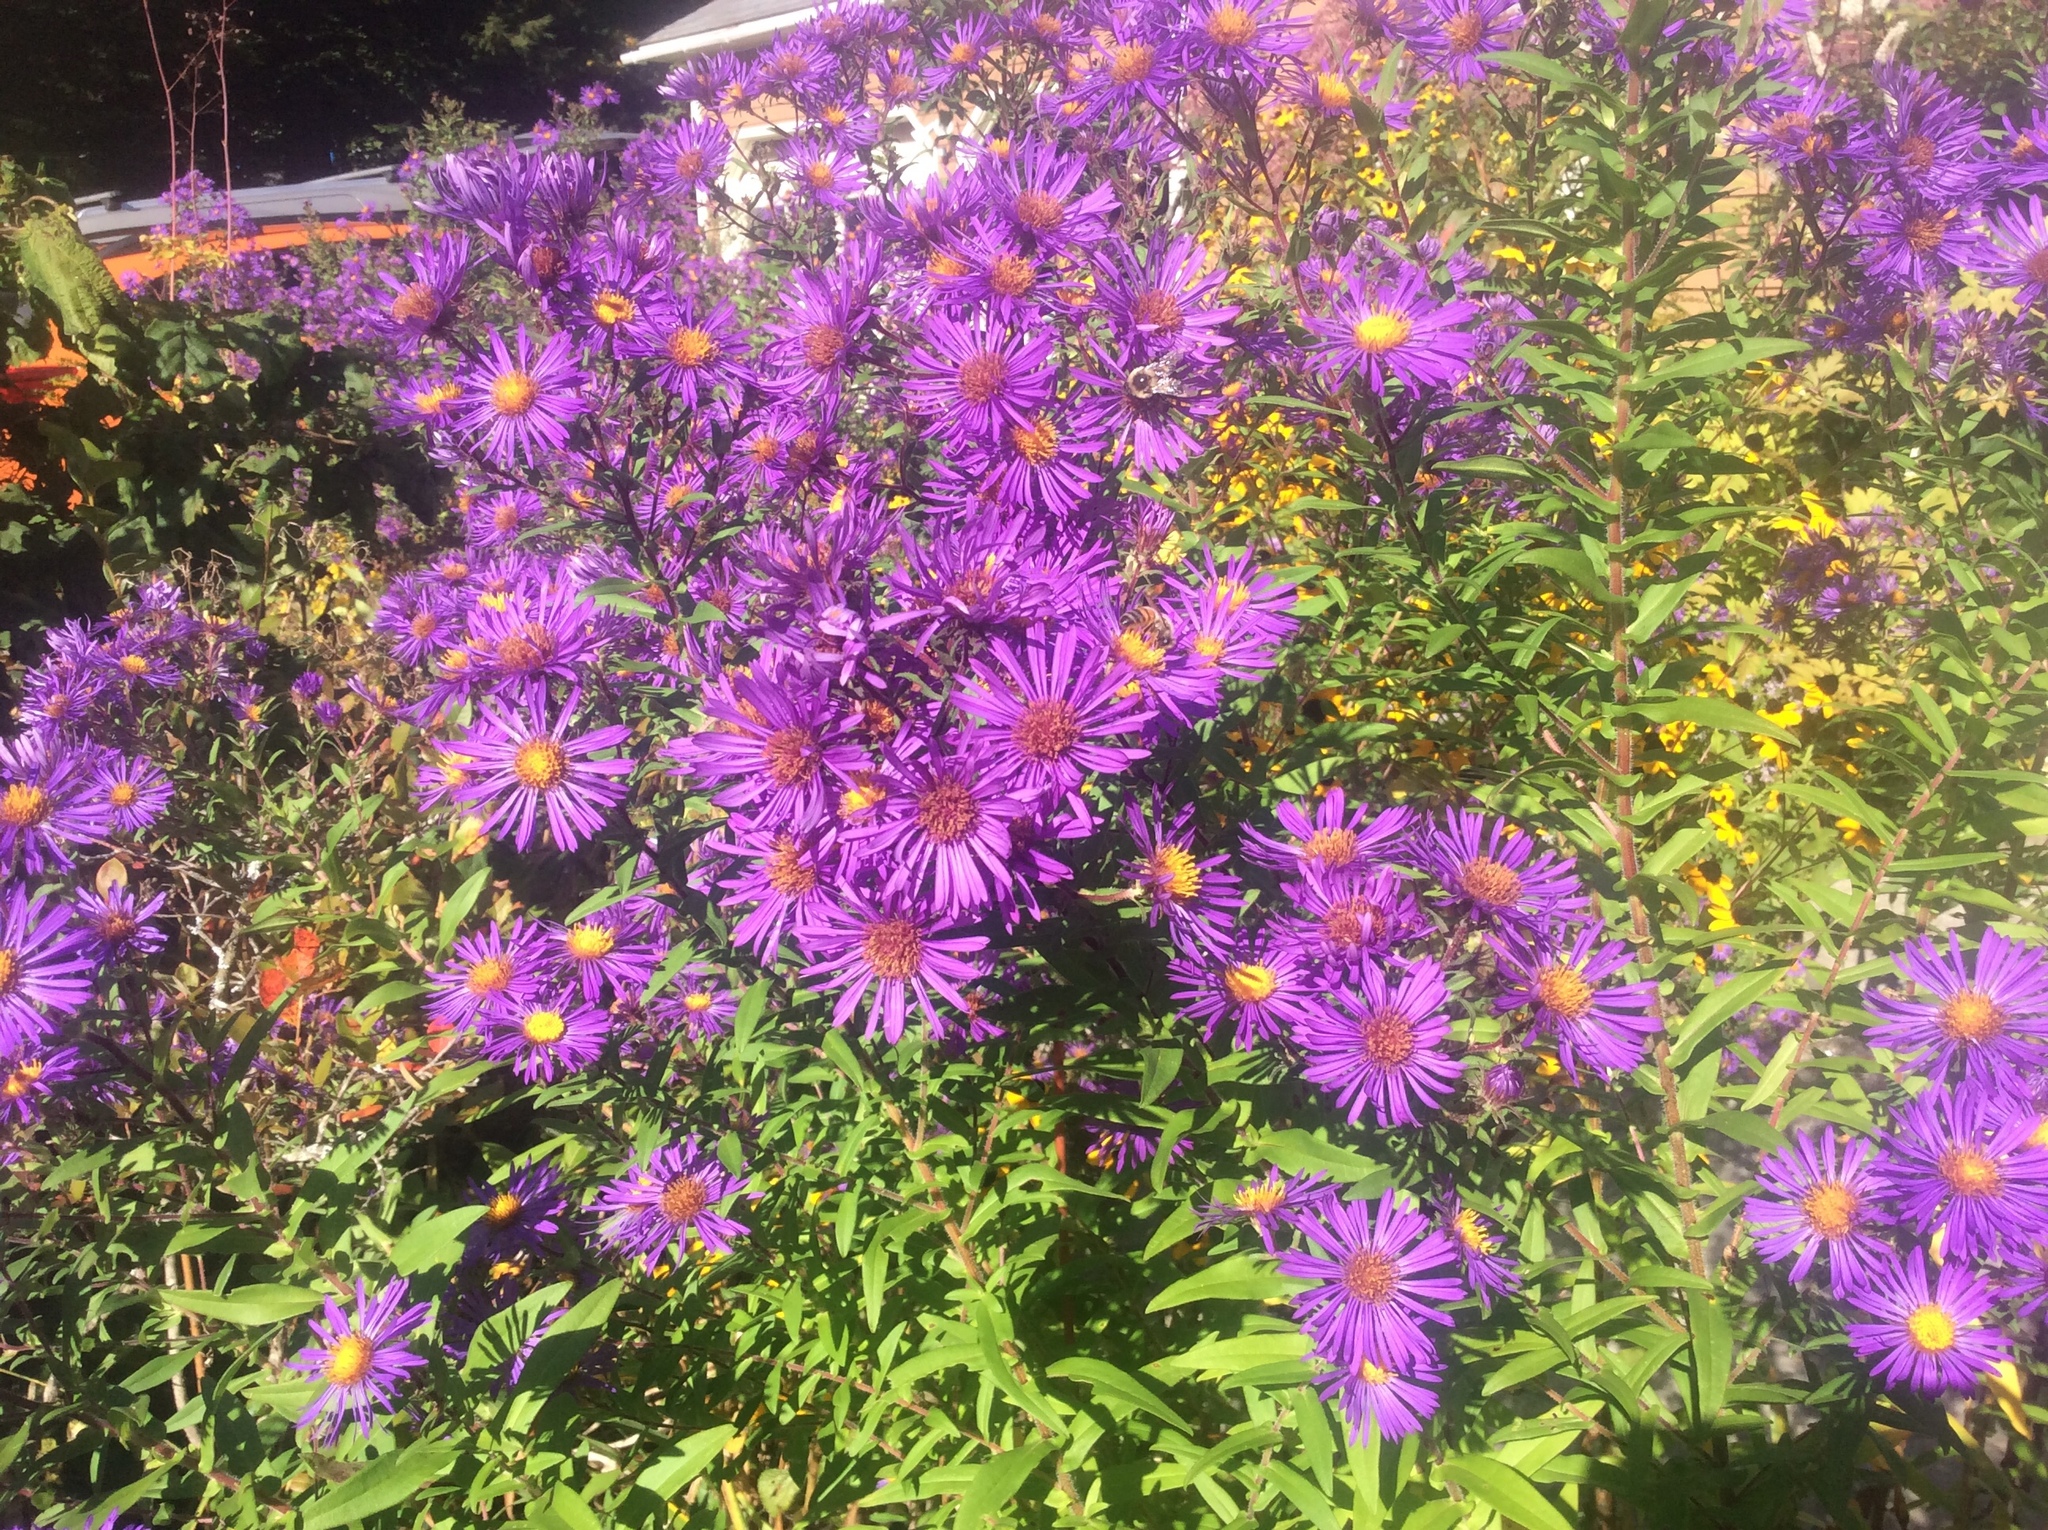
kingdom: Plantae
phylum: Tracheophyta
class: Magnoliopsida
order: Asterales
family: Asteraceae
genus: Symphyotrichum
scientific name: Symphyotrichum novae-angliae
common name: Michaelmas daisy
